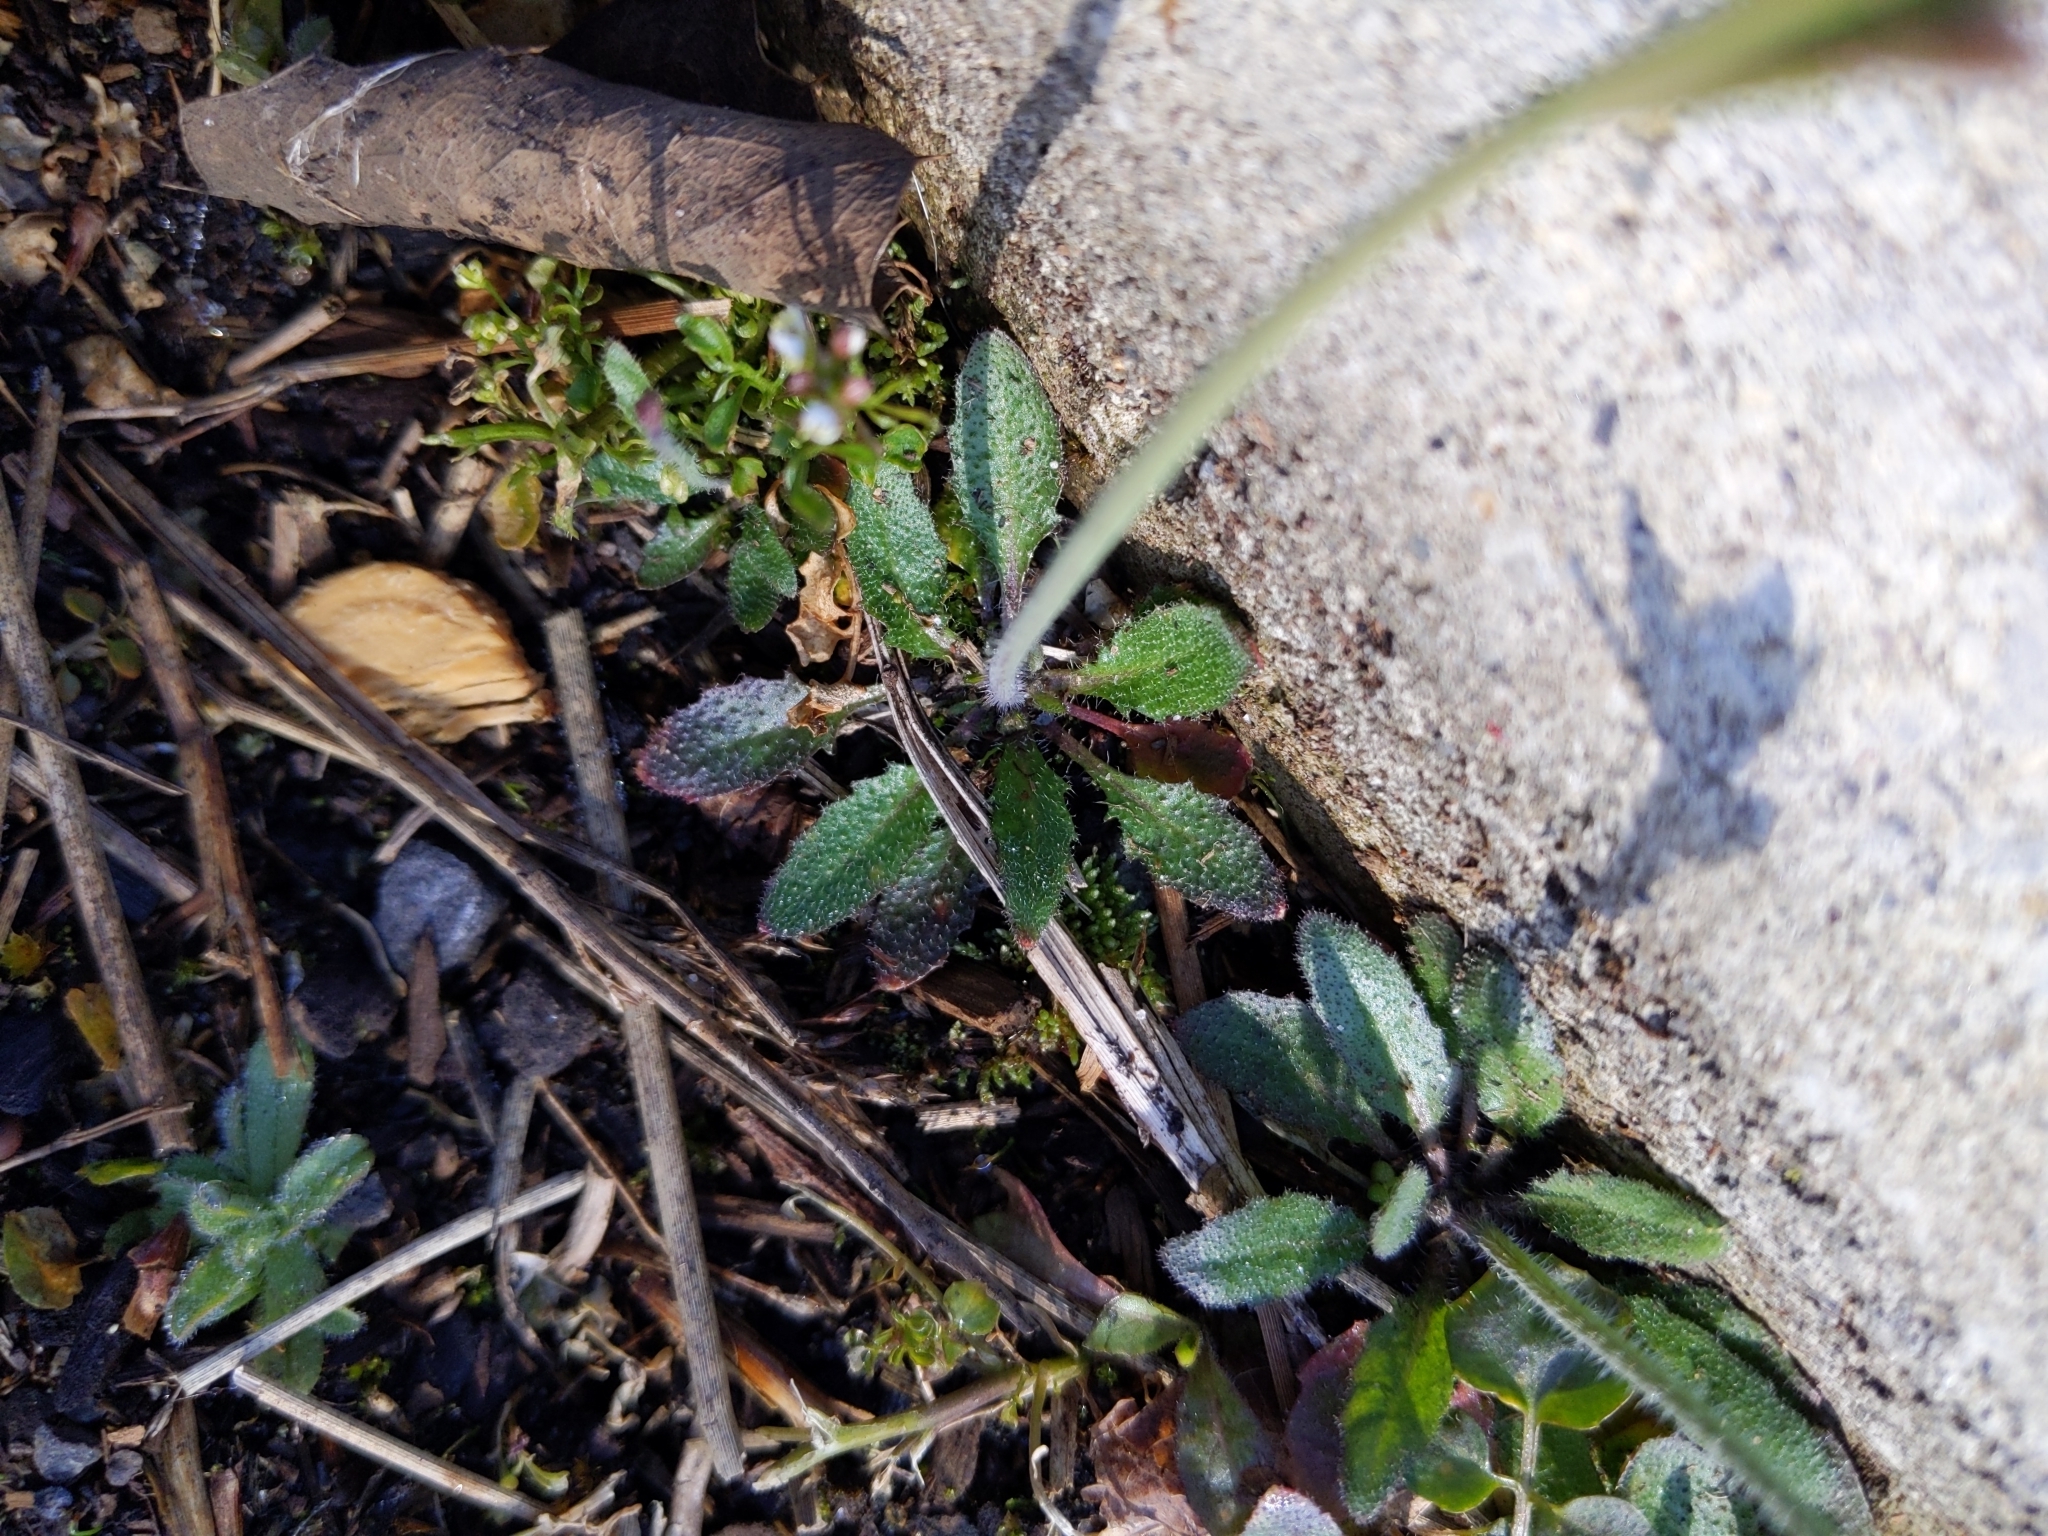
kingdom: Plantae
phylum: Tracheophyta
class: Magnoliopsida
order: Brassicales
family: Brassicaceae
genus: Arabidopsis
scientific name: Arabidopsis thaliana
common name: Thale cress
